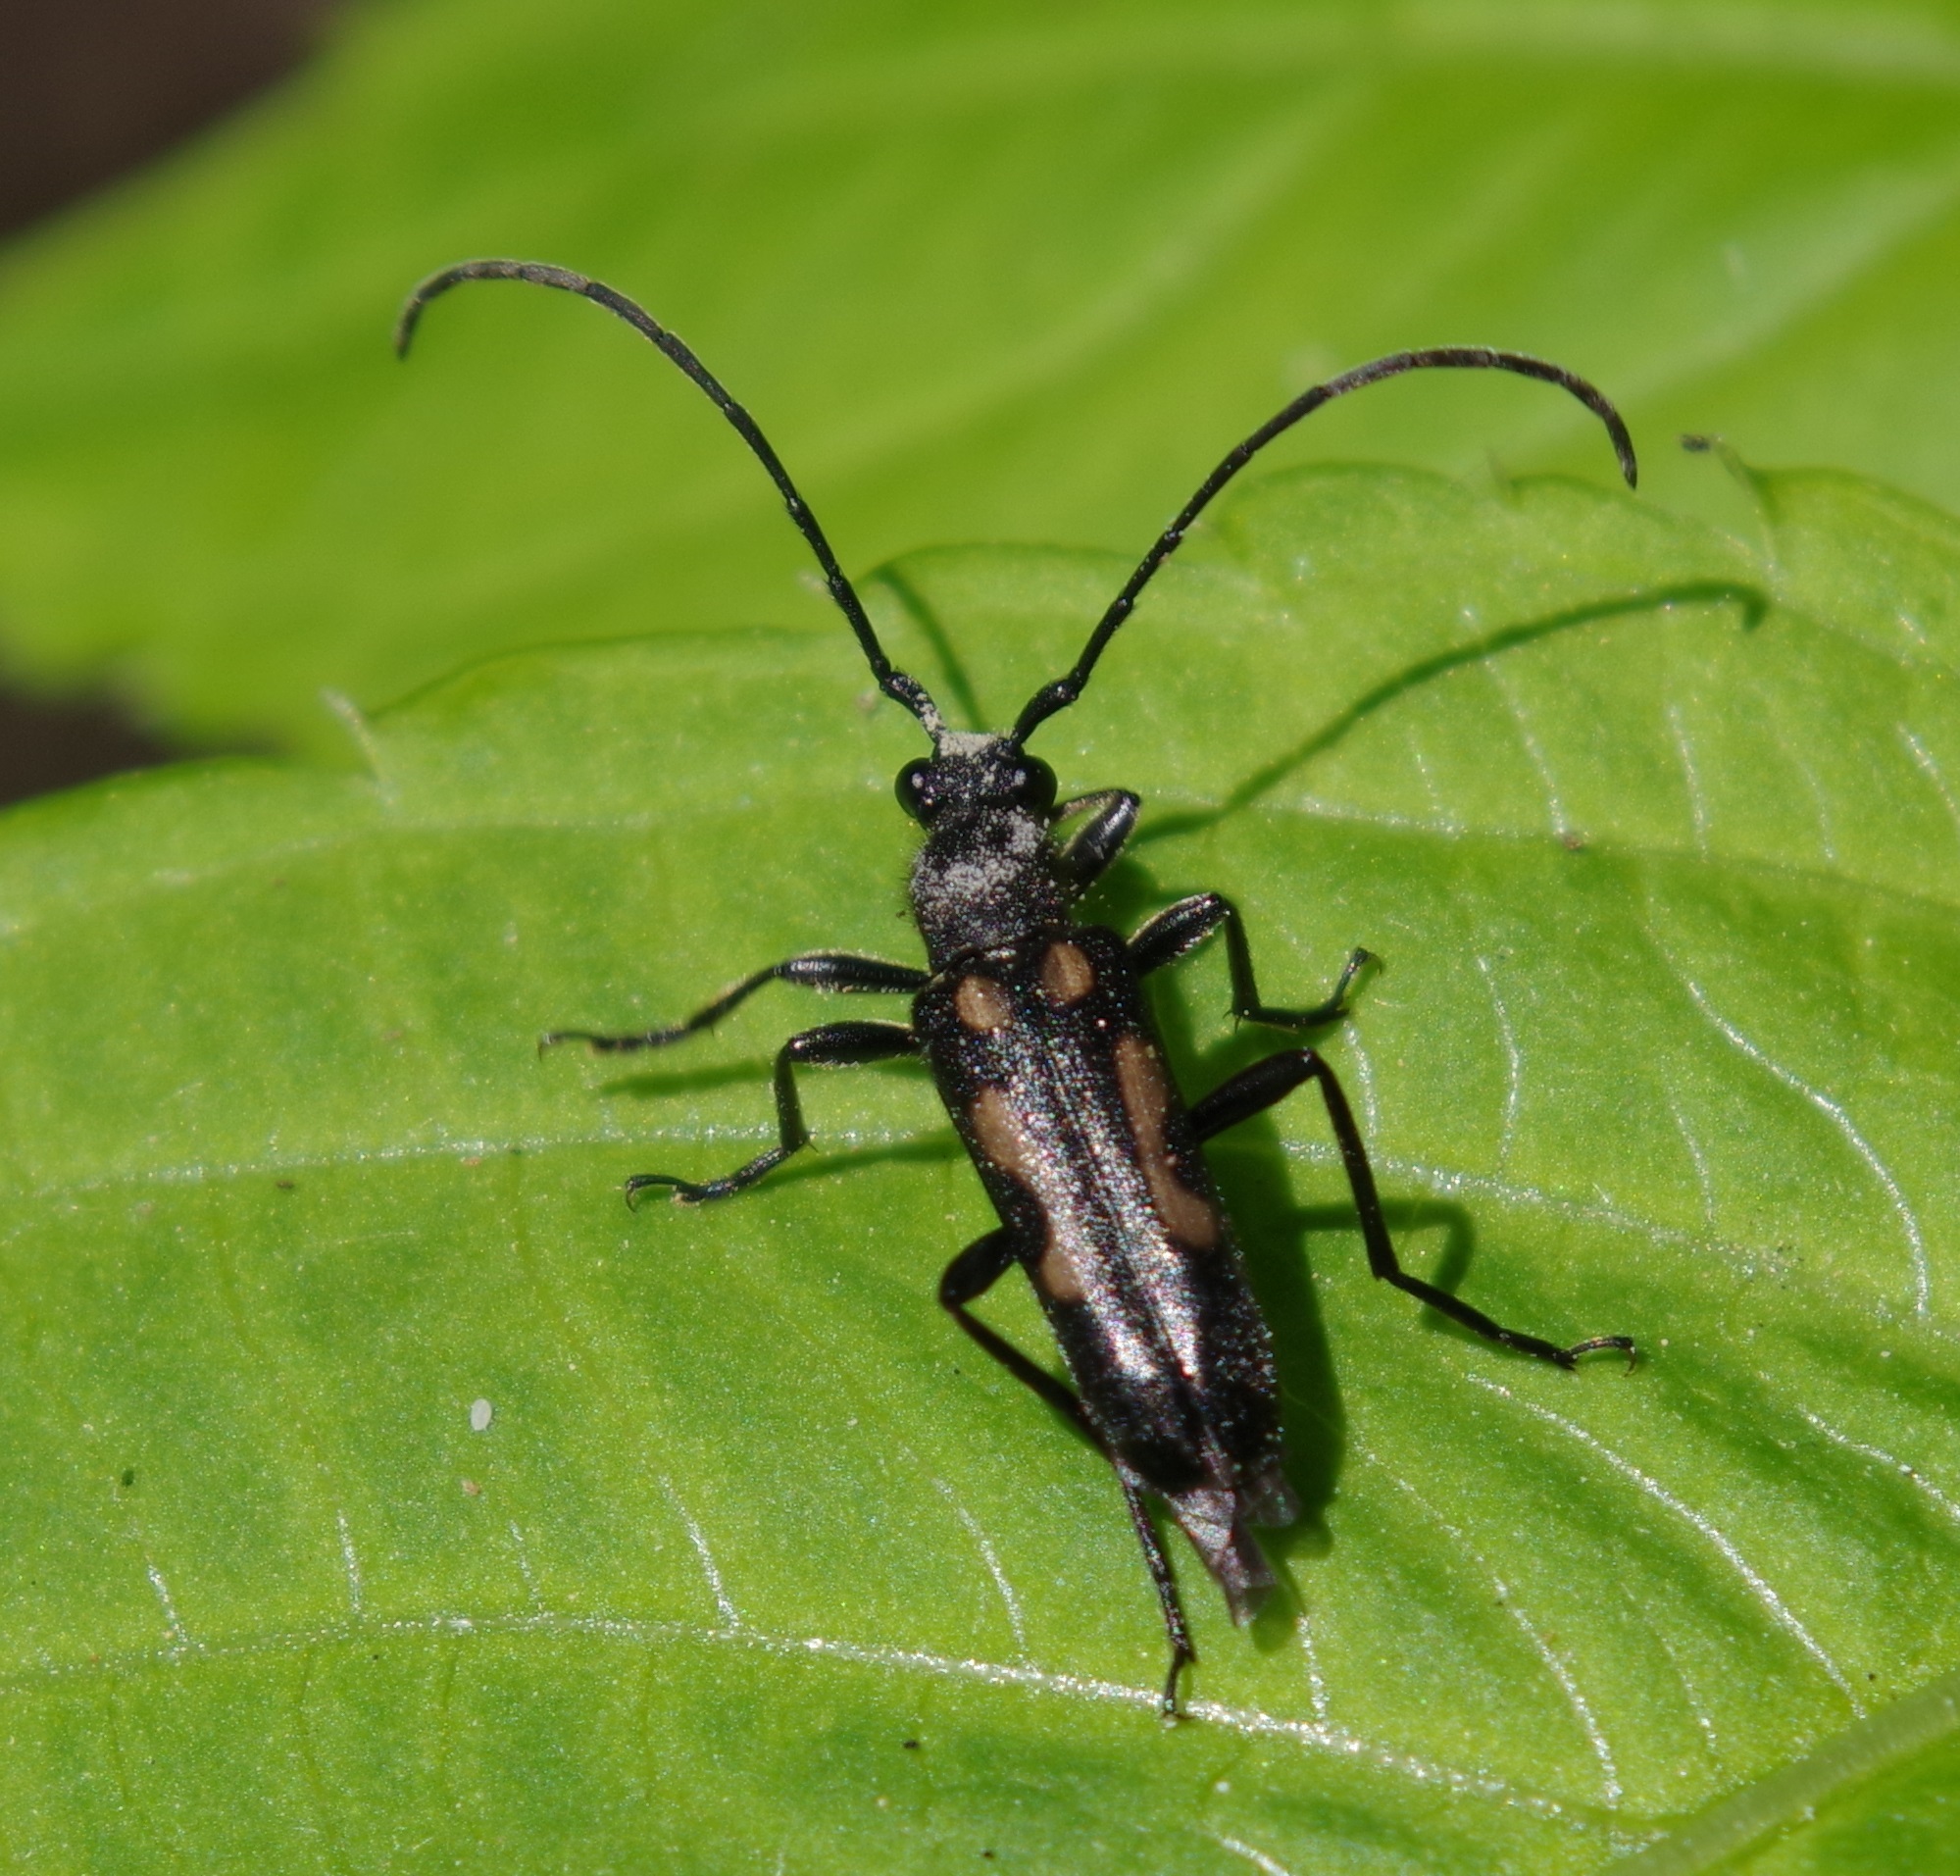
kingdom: Animalia
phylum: Arthropoda
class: Insecta
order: Coleoptera
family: Cerambycidae
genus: Anoplodera
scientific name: Anoplodera sexguttata
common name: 6 spotted longhorn
